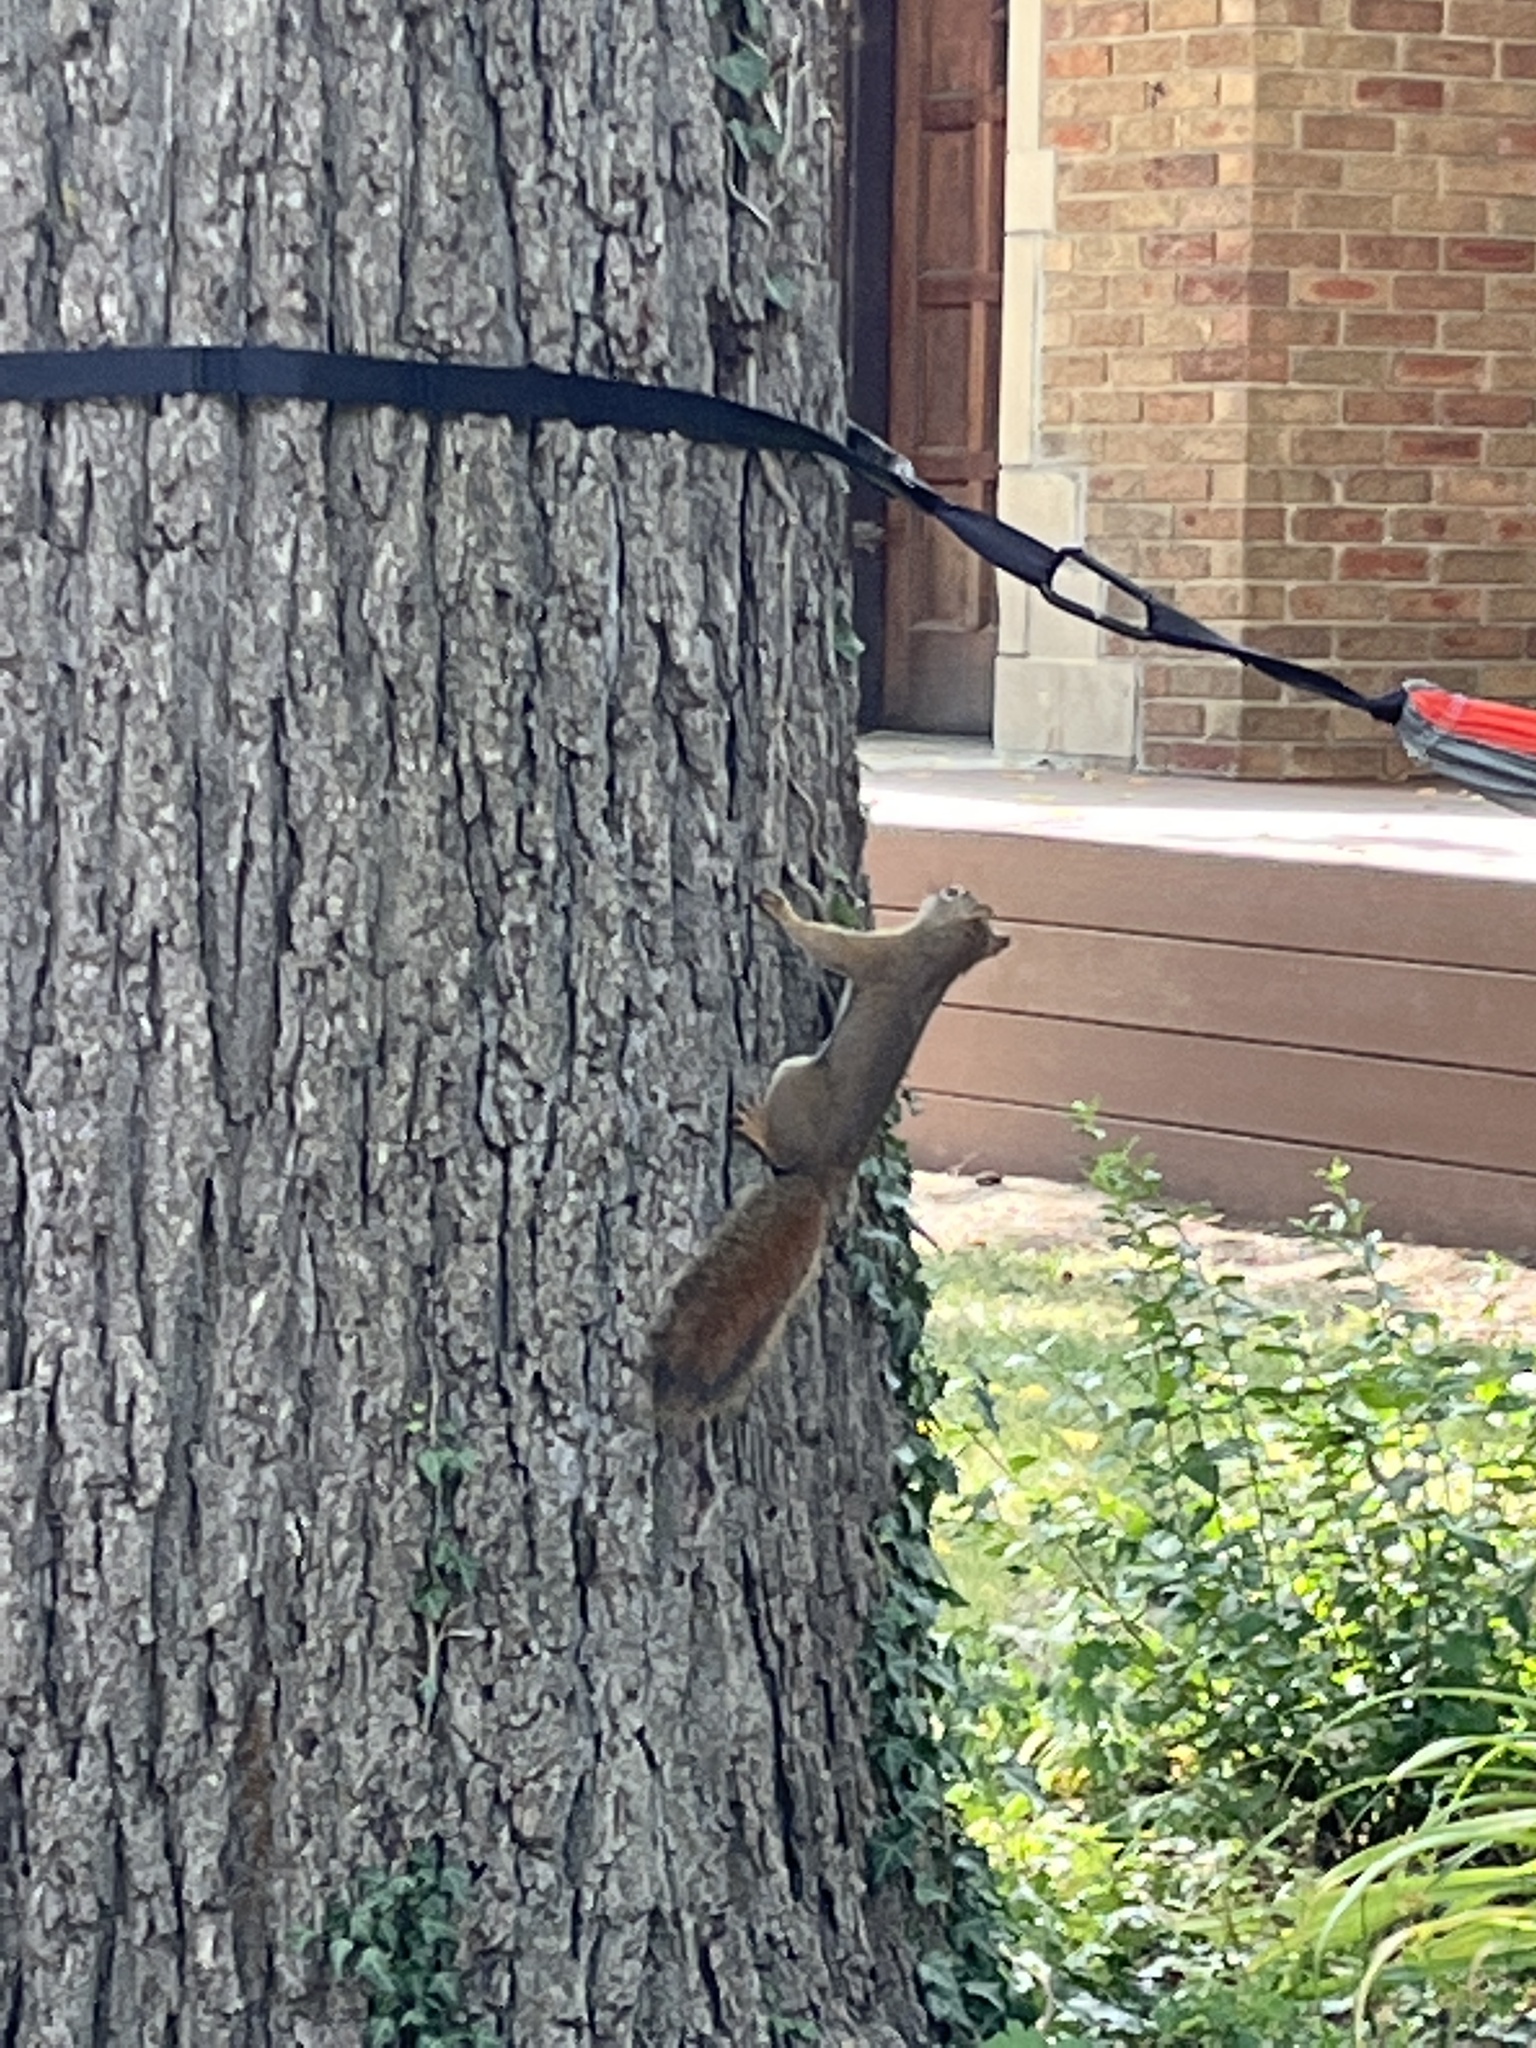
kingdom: Animalia
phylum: Chordata
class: Mammalia
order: Rodentia
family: Sciuridae
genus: Tamiasciurus
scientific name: Tamiasciurus hudsonicus
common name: Red squirrel
